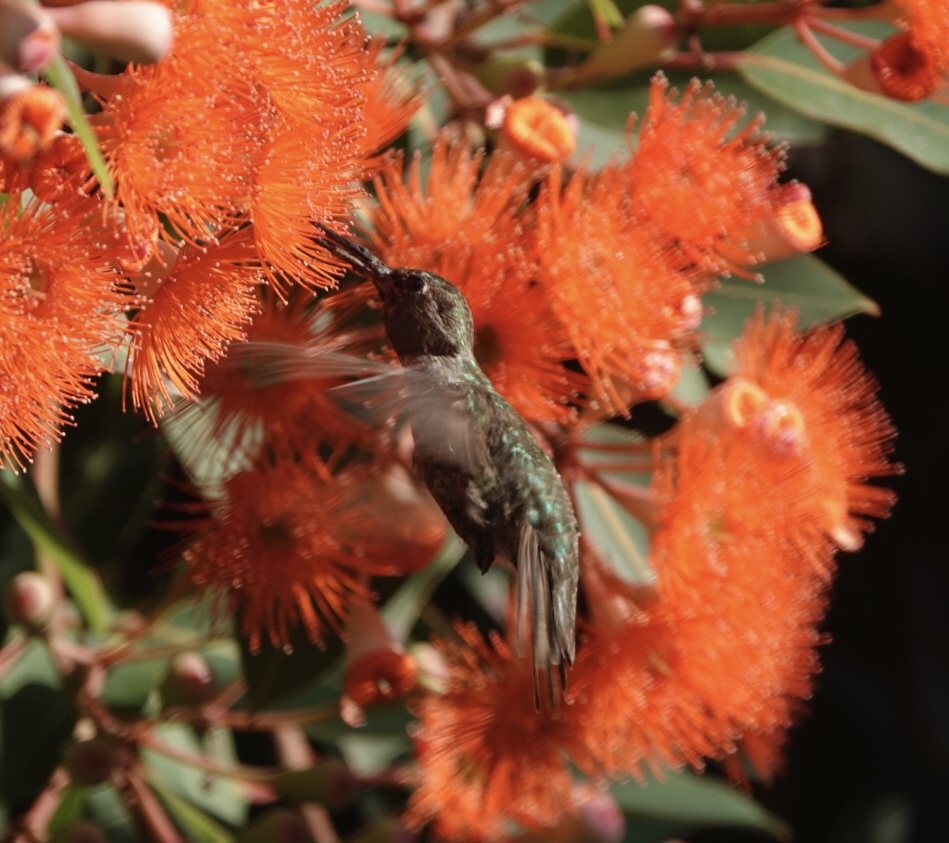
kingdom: Animalia
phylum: Chordata
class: Aves
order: Apodiformes
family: Trochilidae
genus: Calypte
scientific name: Calypte anna
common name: Anna's hummingbird
